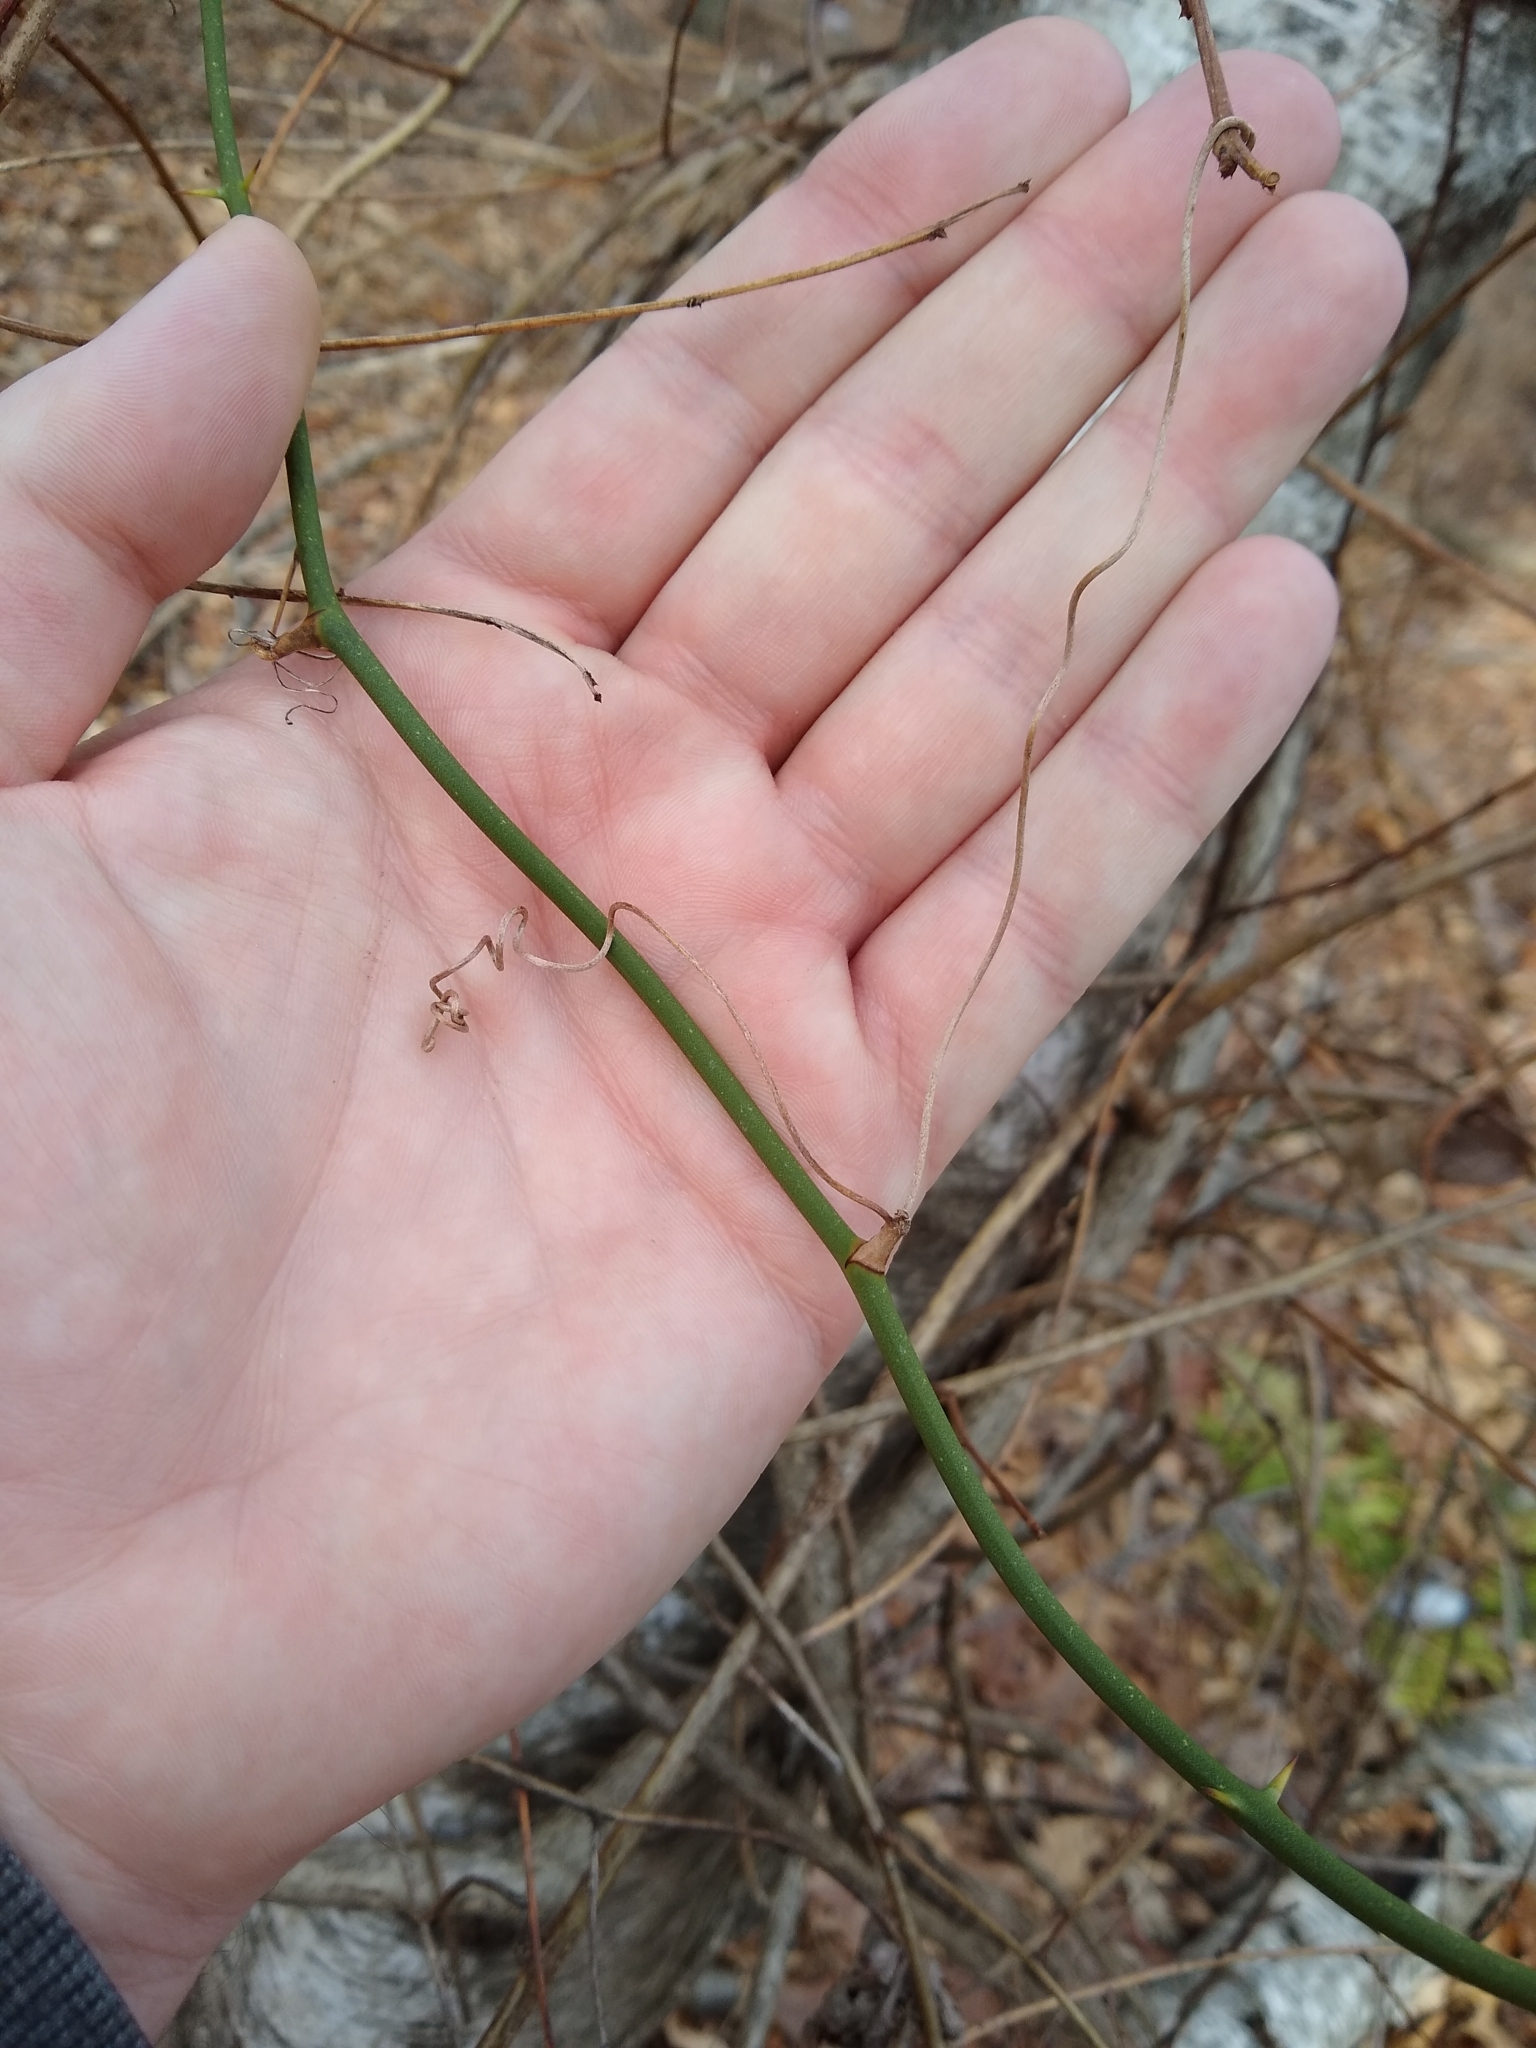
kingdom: Plantae
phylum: Tracheophyta
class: Liliopsida
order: Liliales
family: Smilacaceae
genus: Smilax
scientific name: Smilax rotundifolia
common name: Bullbriar
